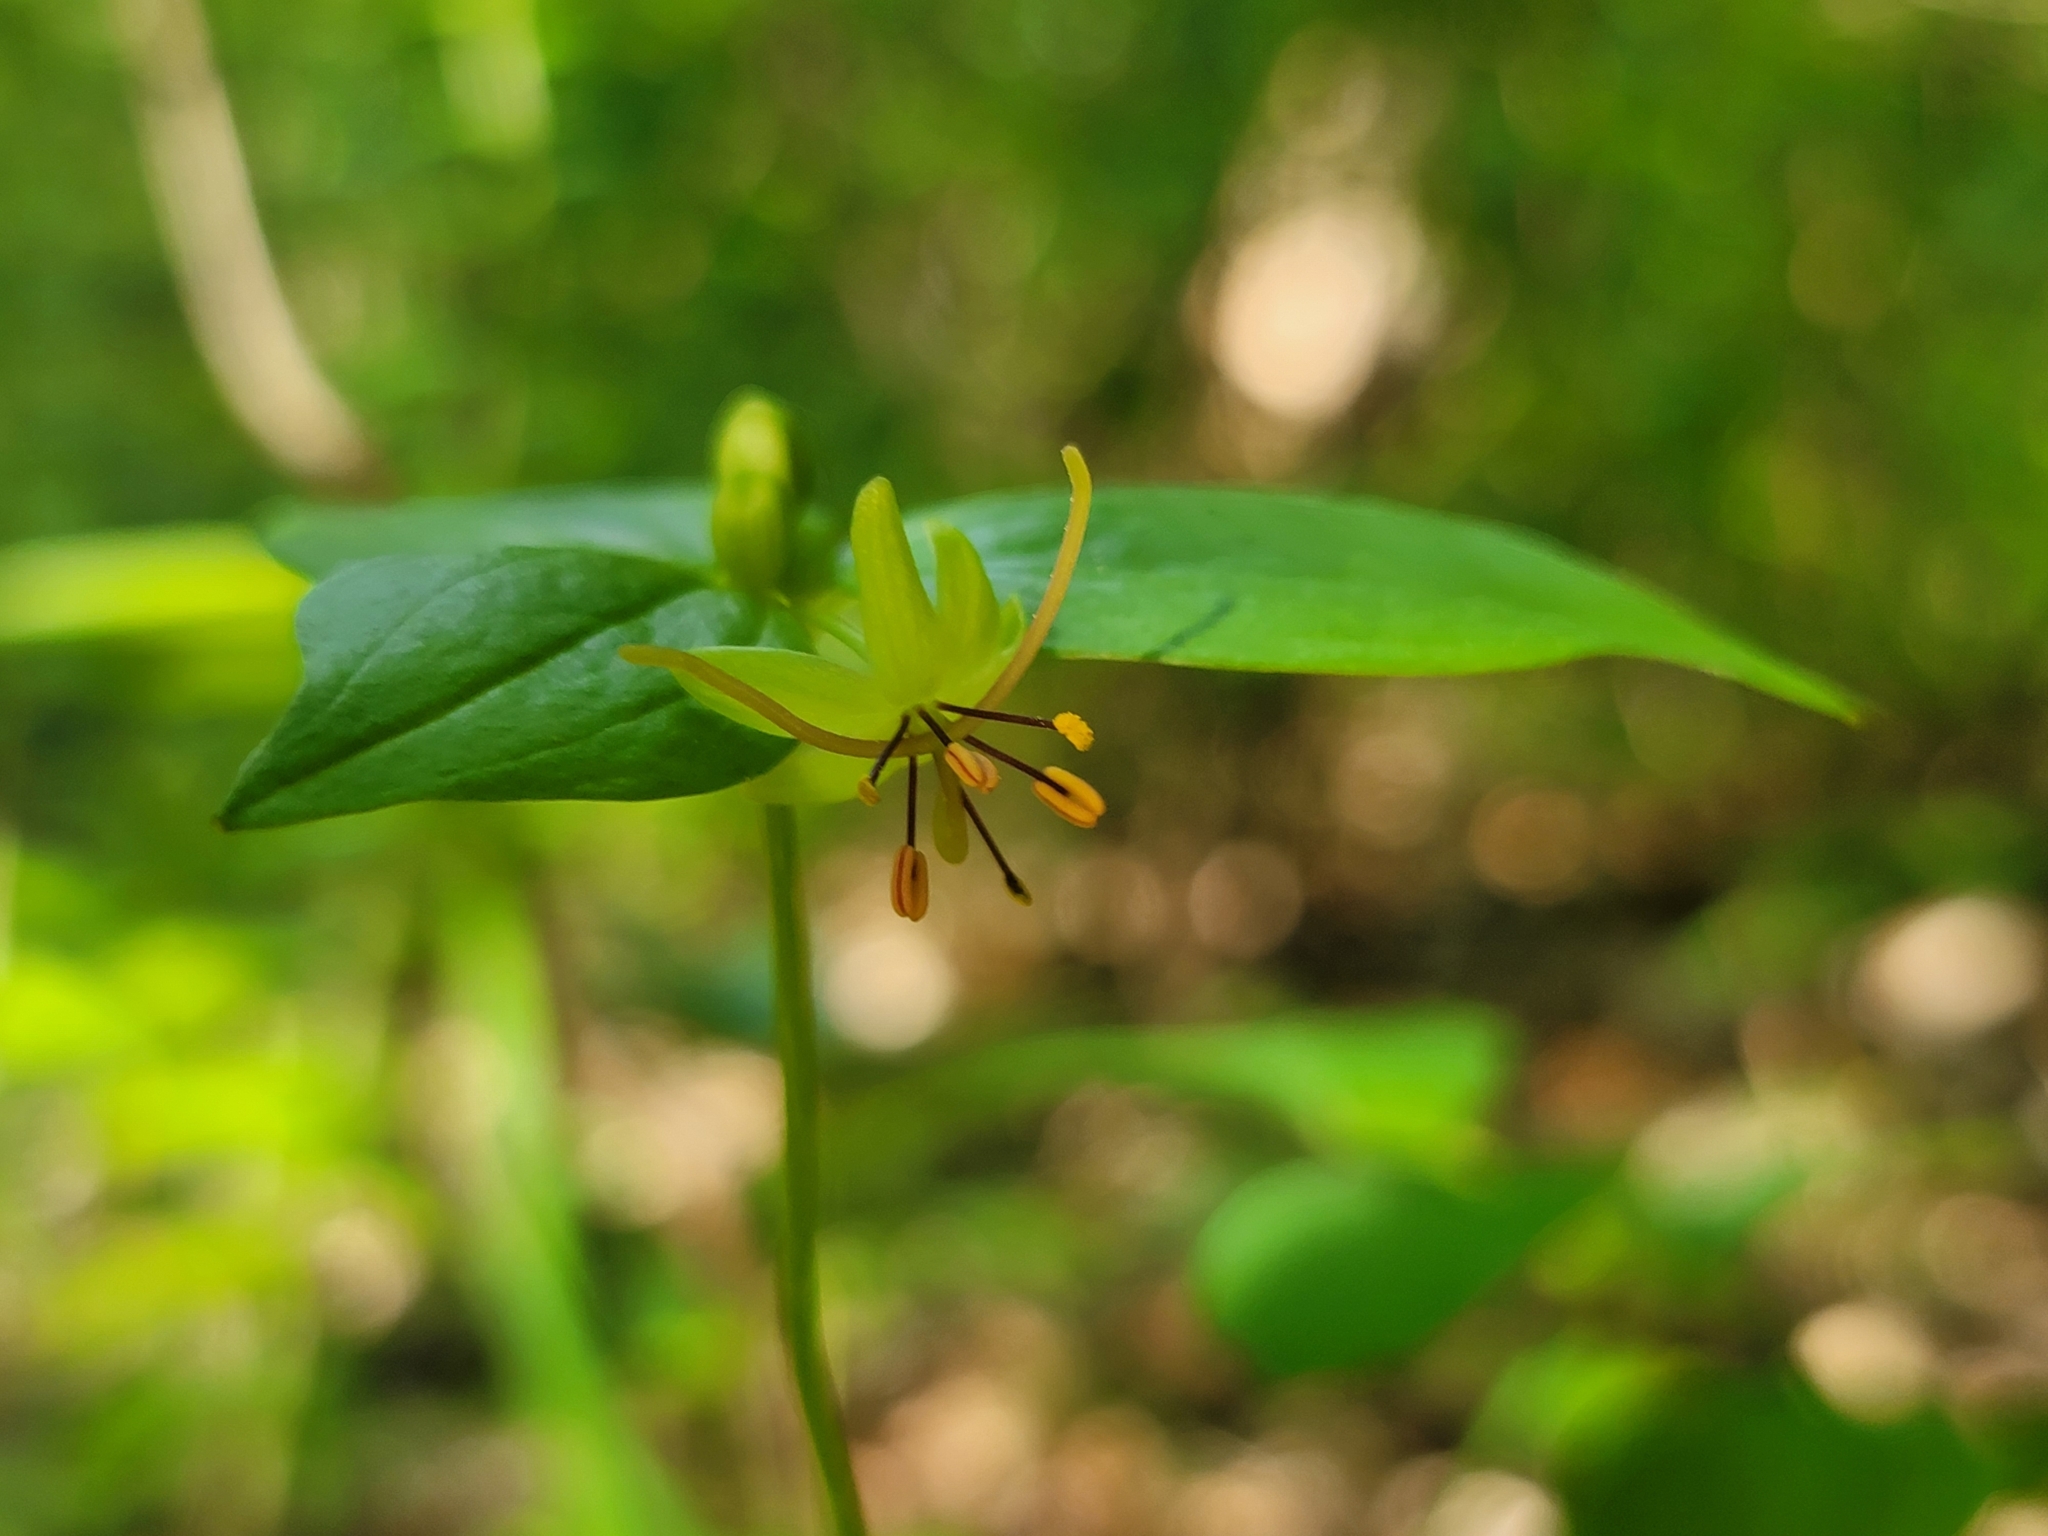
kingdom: Plantae
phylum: Tracheophyta
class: Liliopsida
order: Liliales
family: Liliaceae
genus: Medeola
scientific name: Medeola virginiana
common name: Indian cucumber-root
